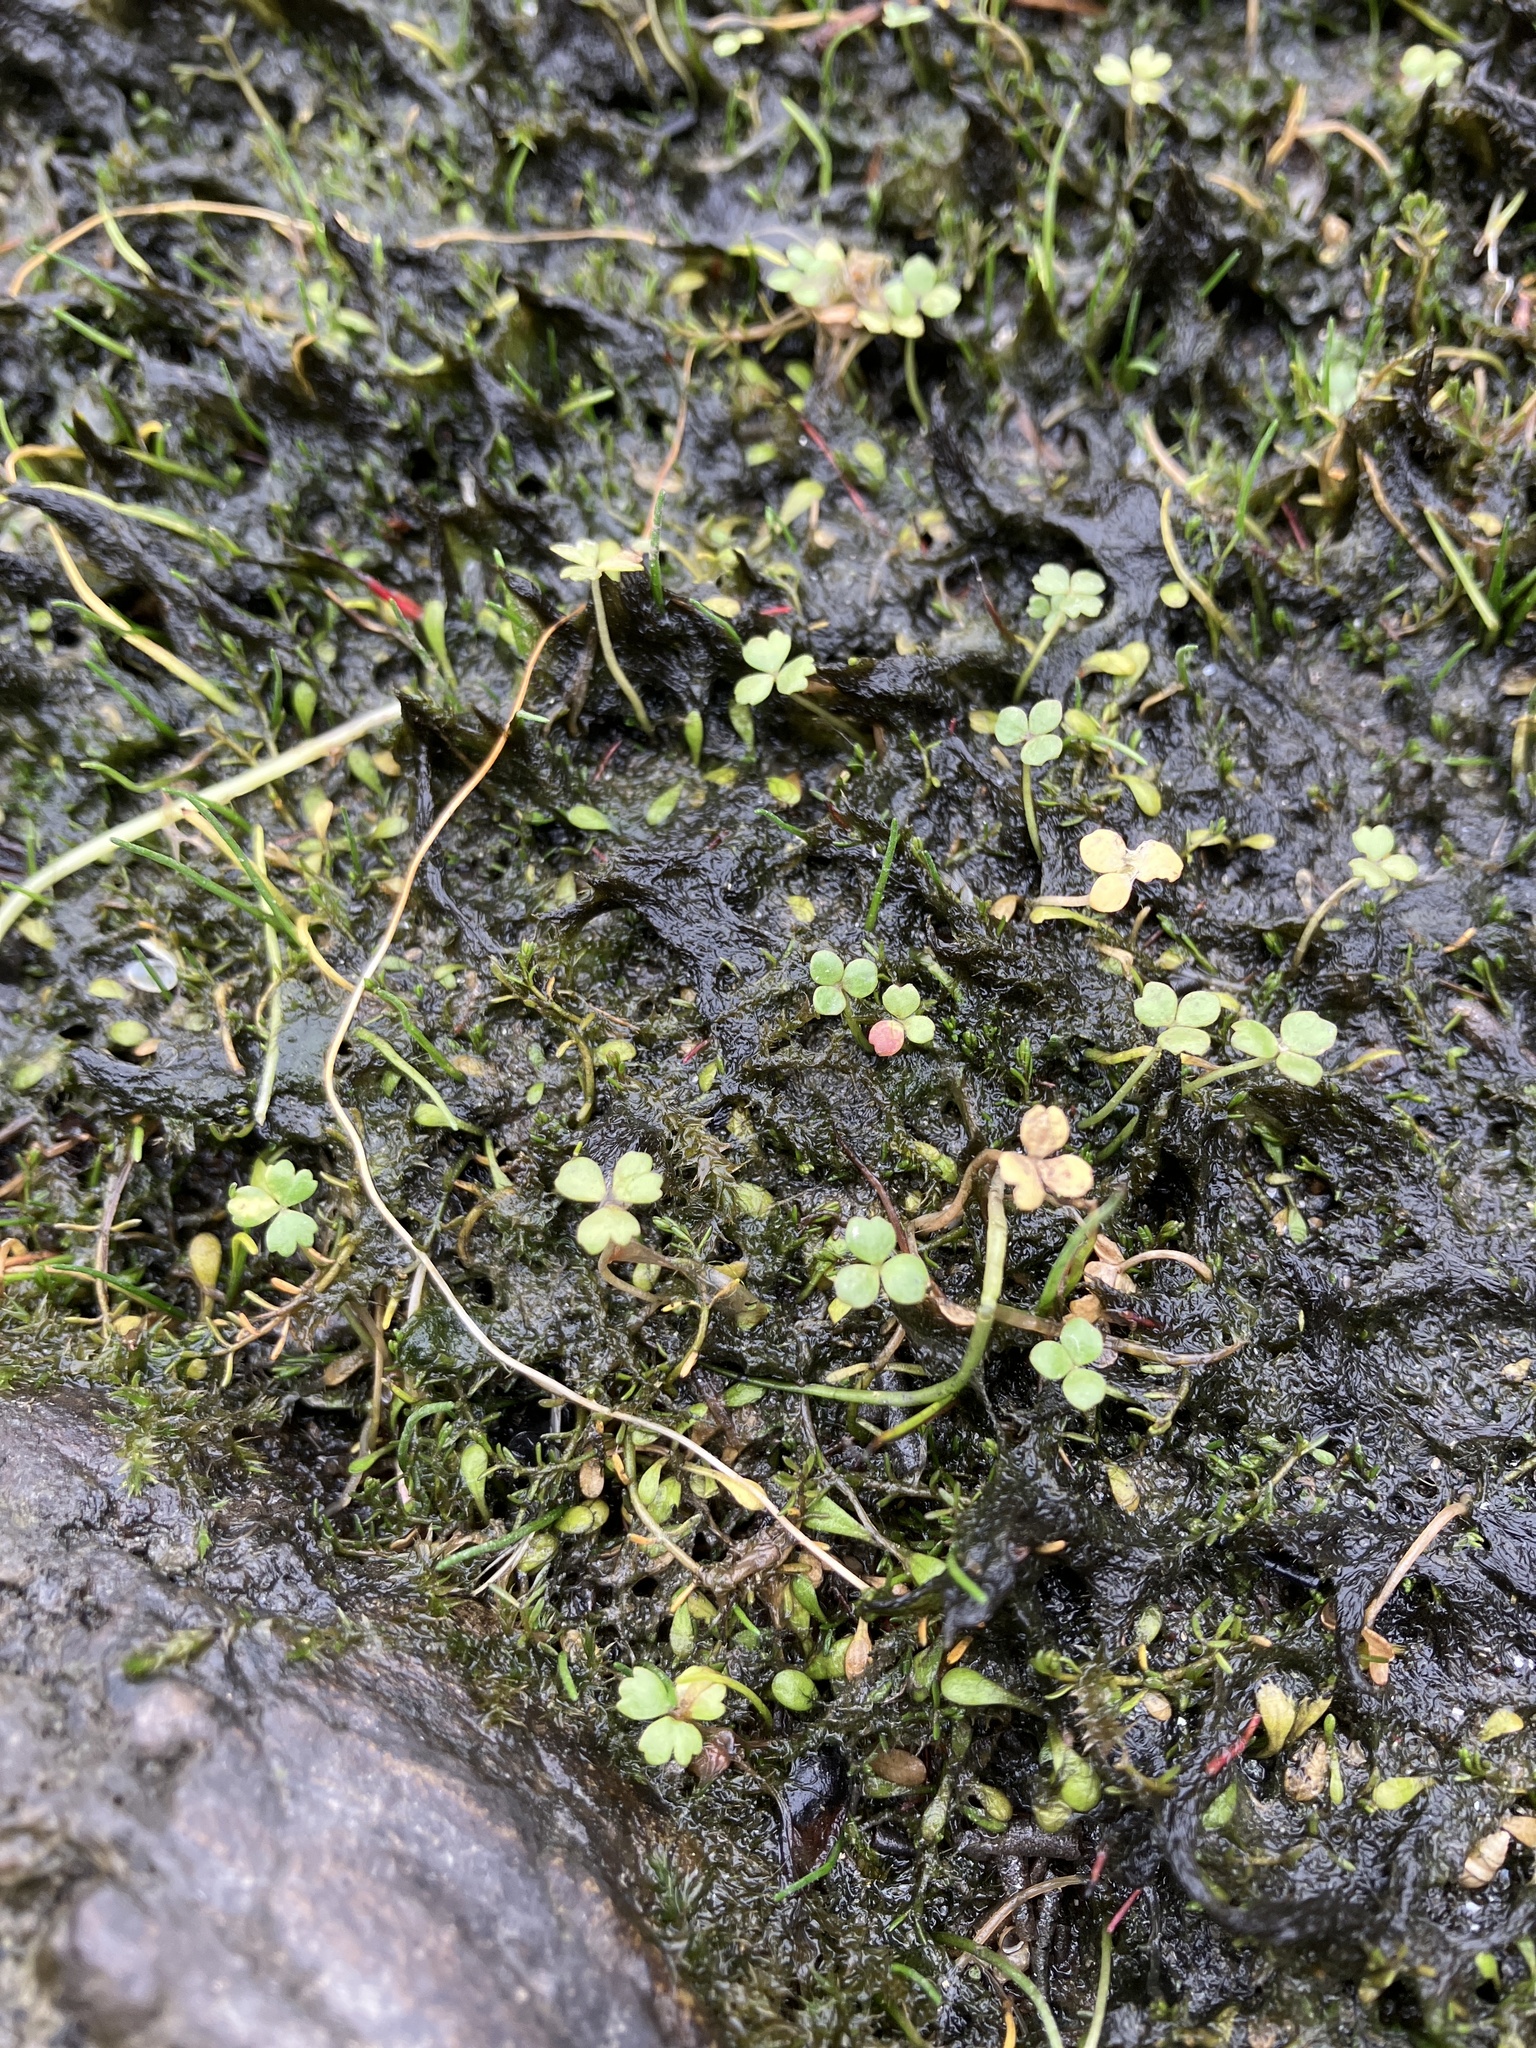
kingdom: Plantae
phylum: Tracheophyta
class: Magnoliopsida
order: Apiales
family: Araliaceae
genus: Hydrocotyle
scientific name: Hydrocotyle sulcata
